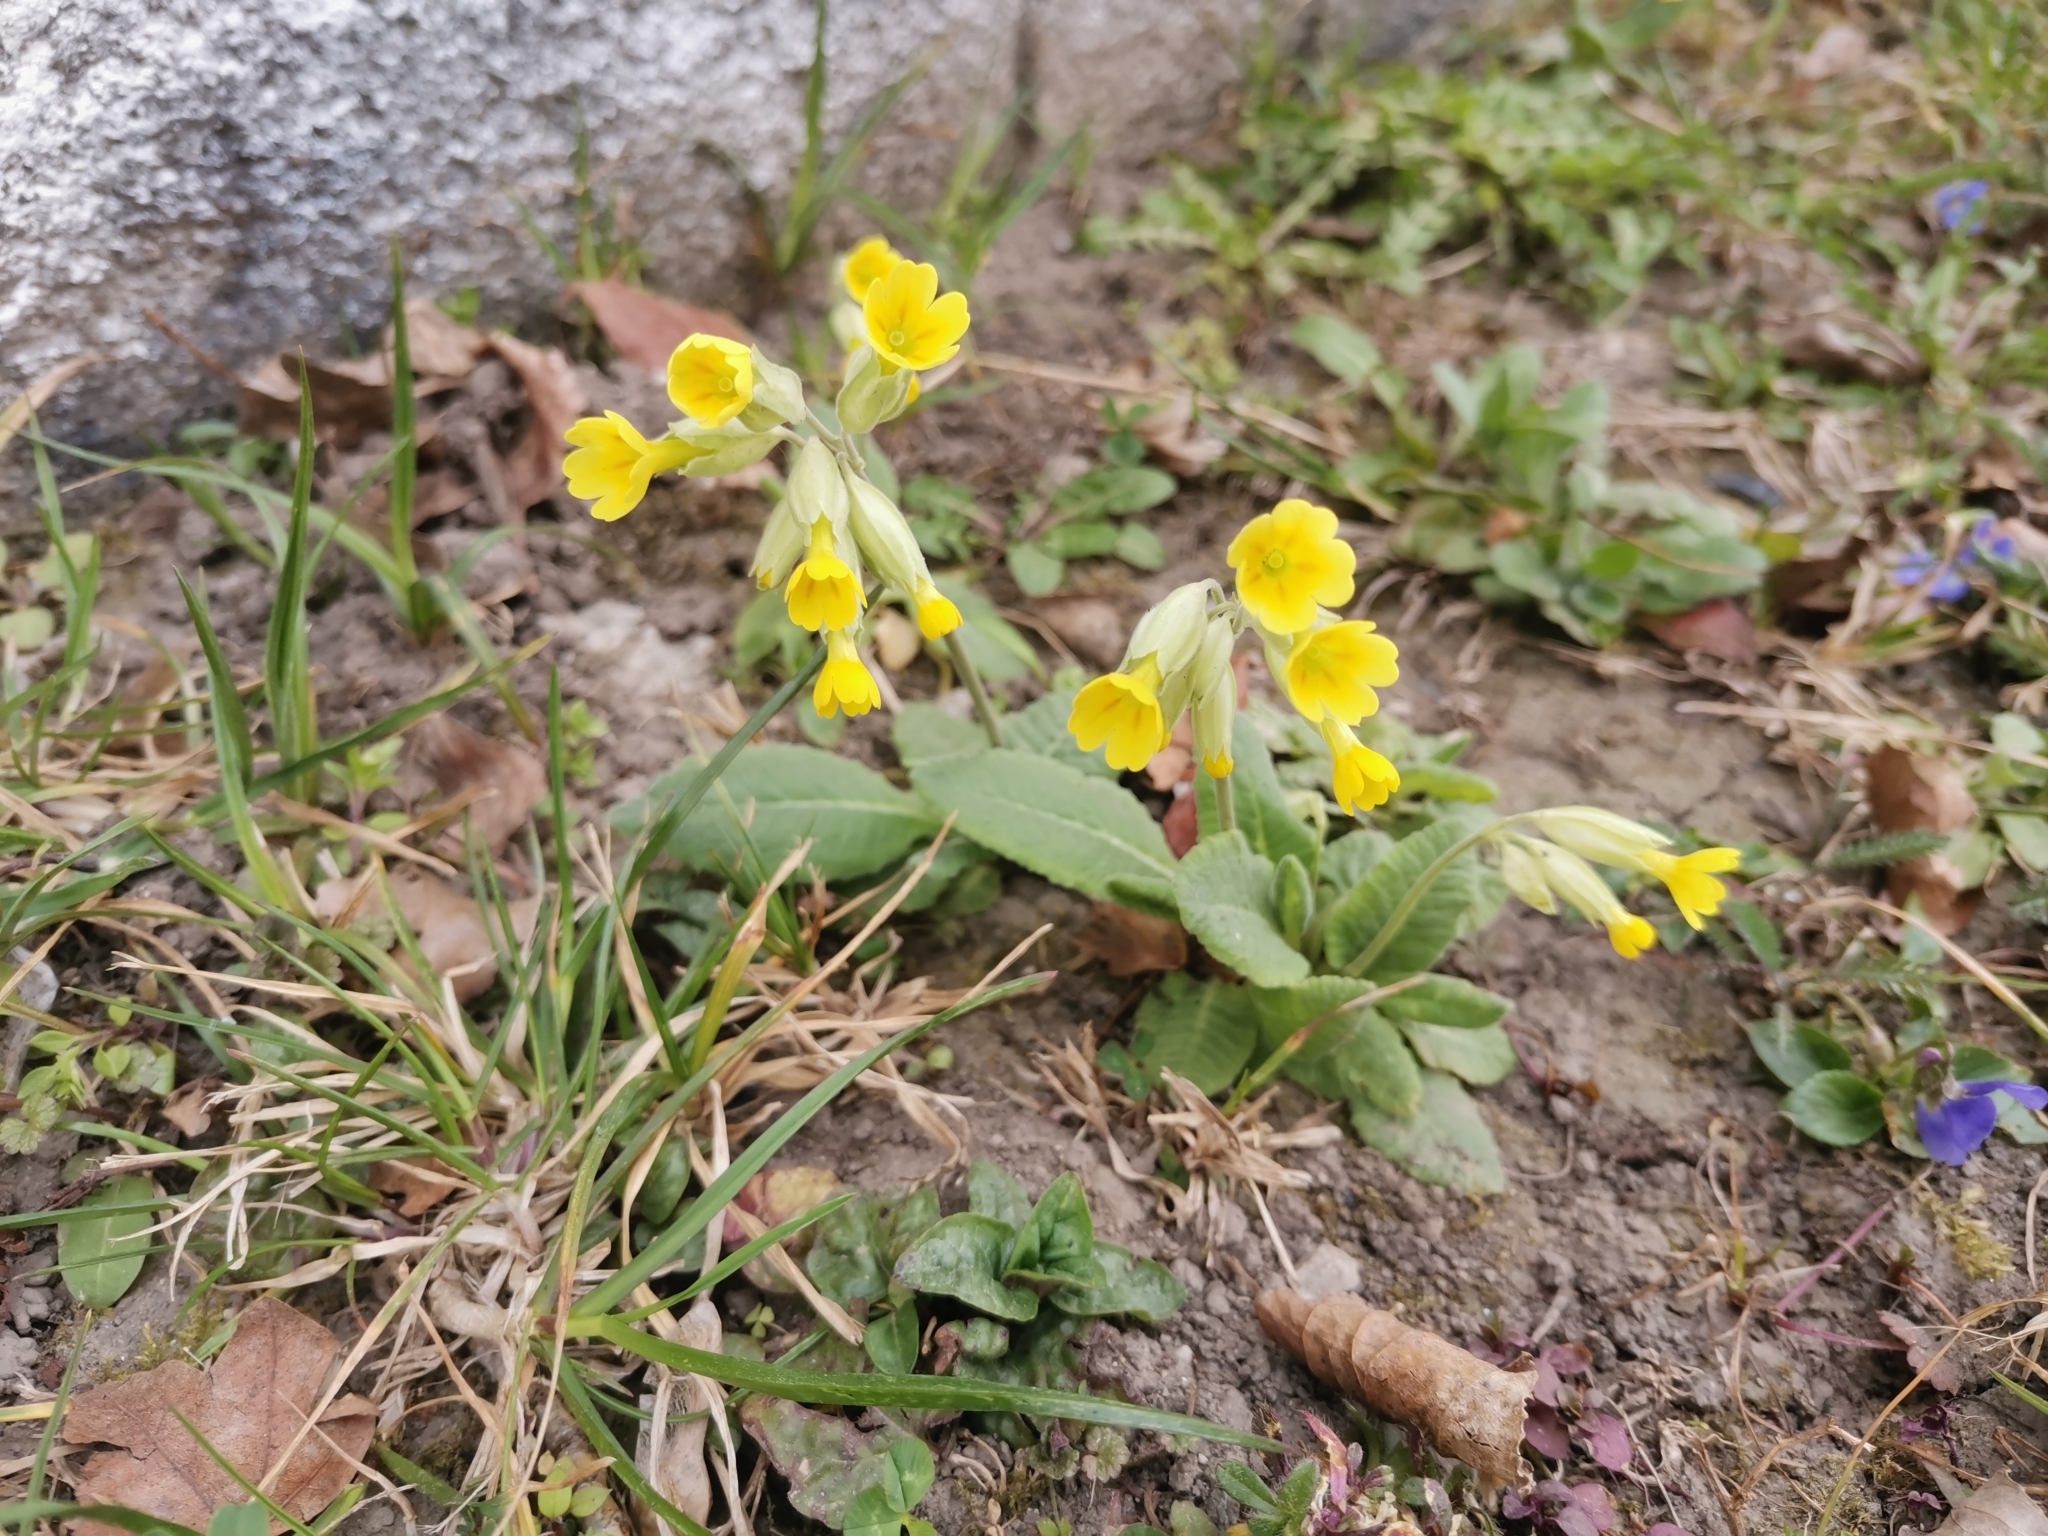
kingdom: Plantae
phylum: Tracheophyta
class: Magnoliopsida
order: Ericales
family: Primulaceae
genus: Primula
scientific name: Primula veris
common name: Cowslip
